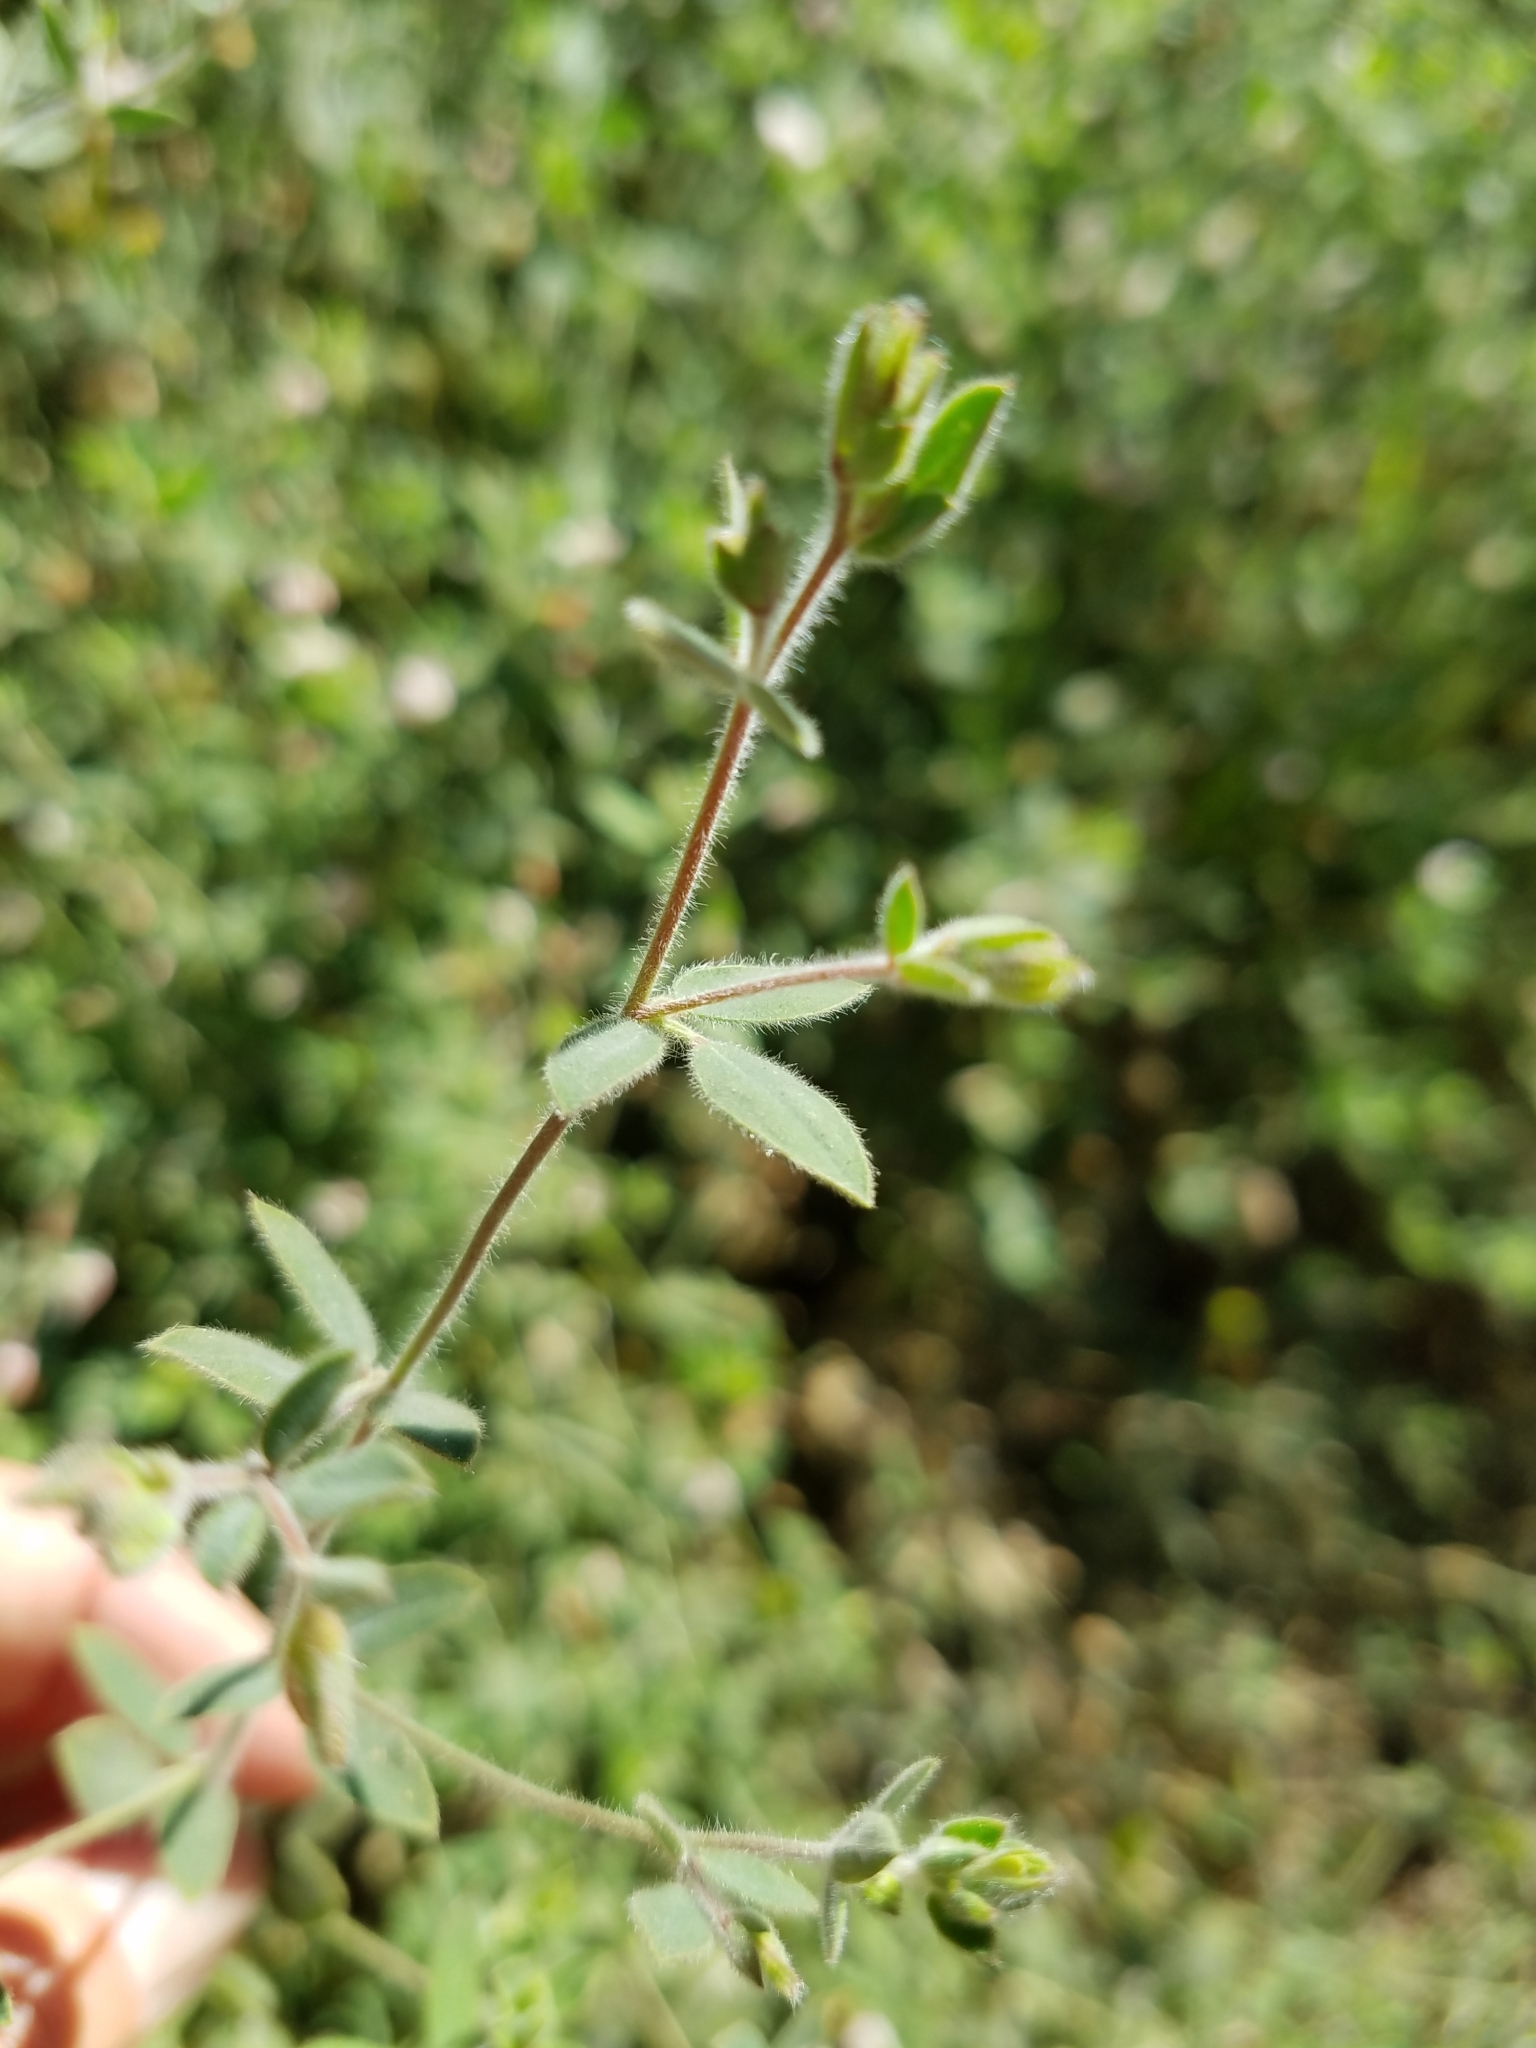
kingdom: Plantae
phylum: Tracheophyta
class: Magnoliopsida
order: Fabales
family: Fabaceae
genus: Acmispon
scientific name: Acmispon americanus
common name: American bird's-foot trefoil
